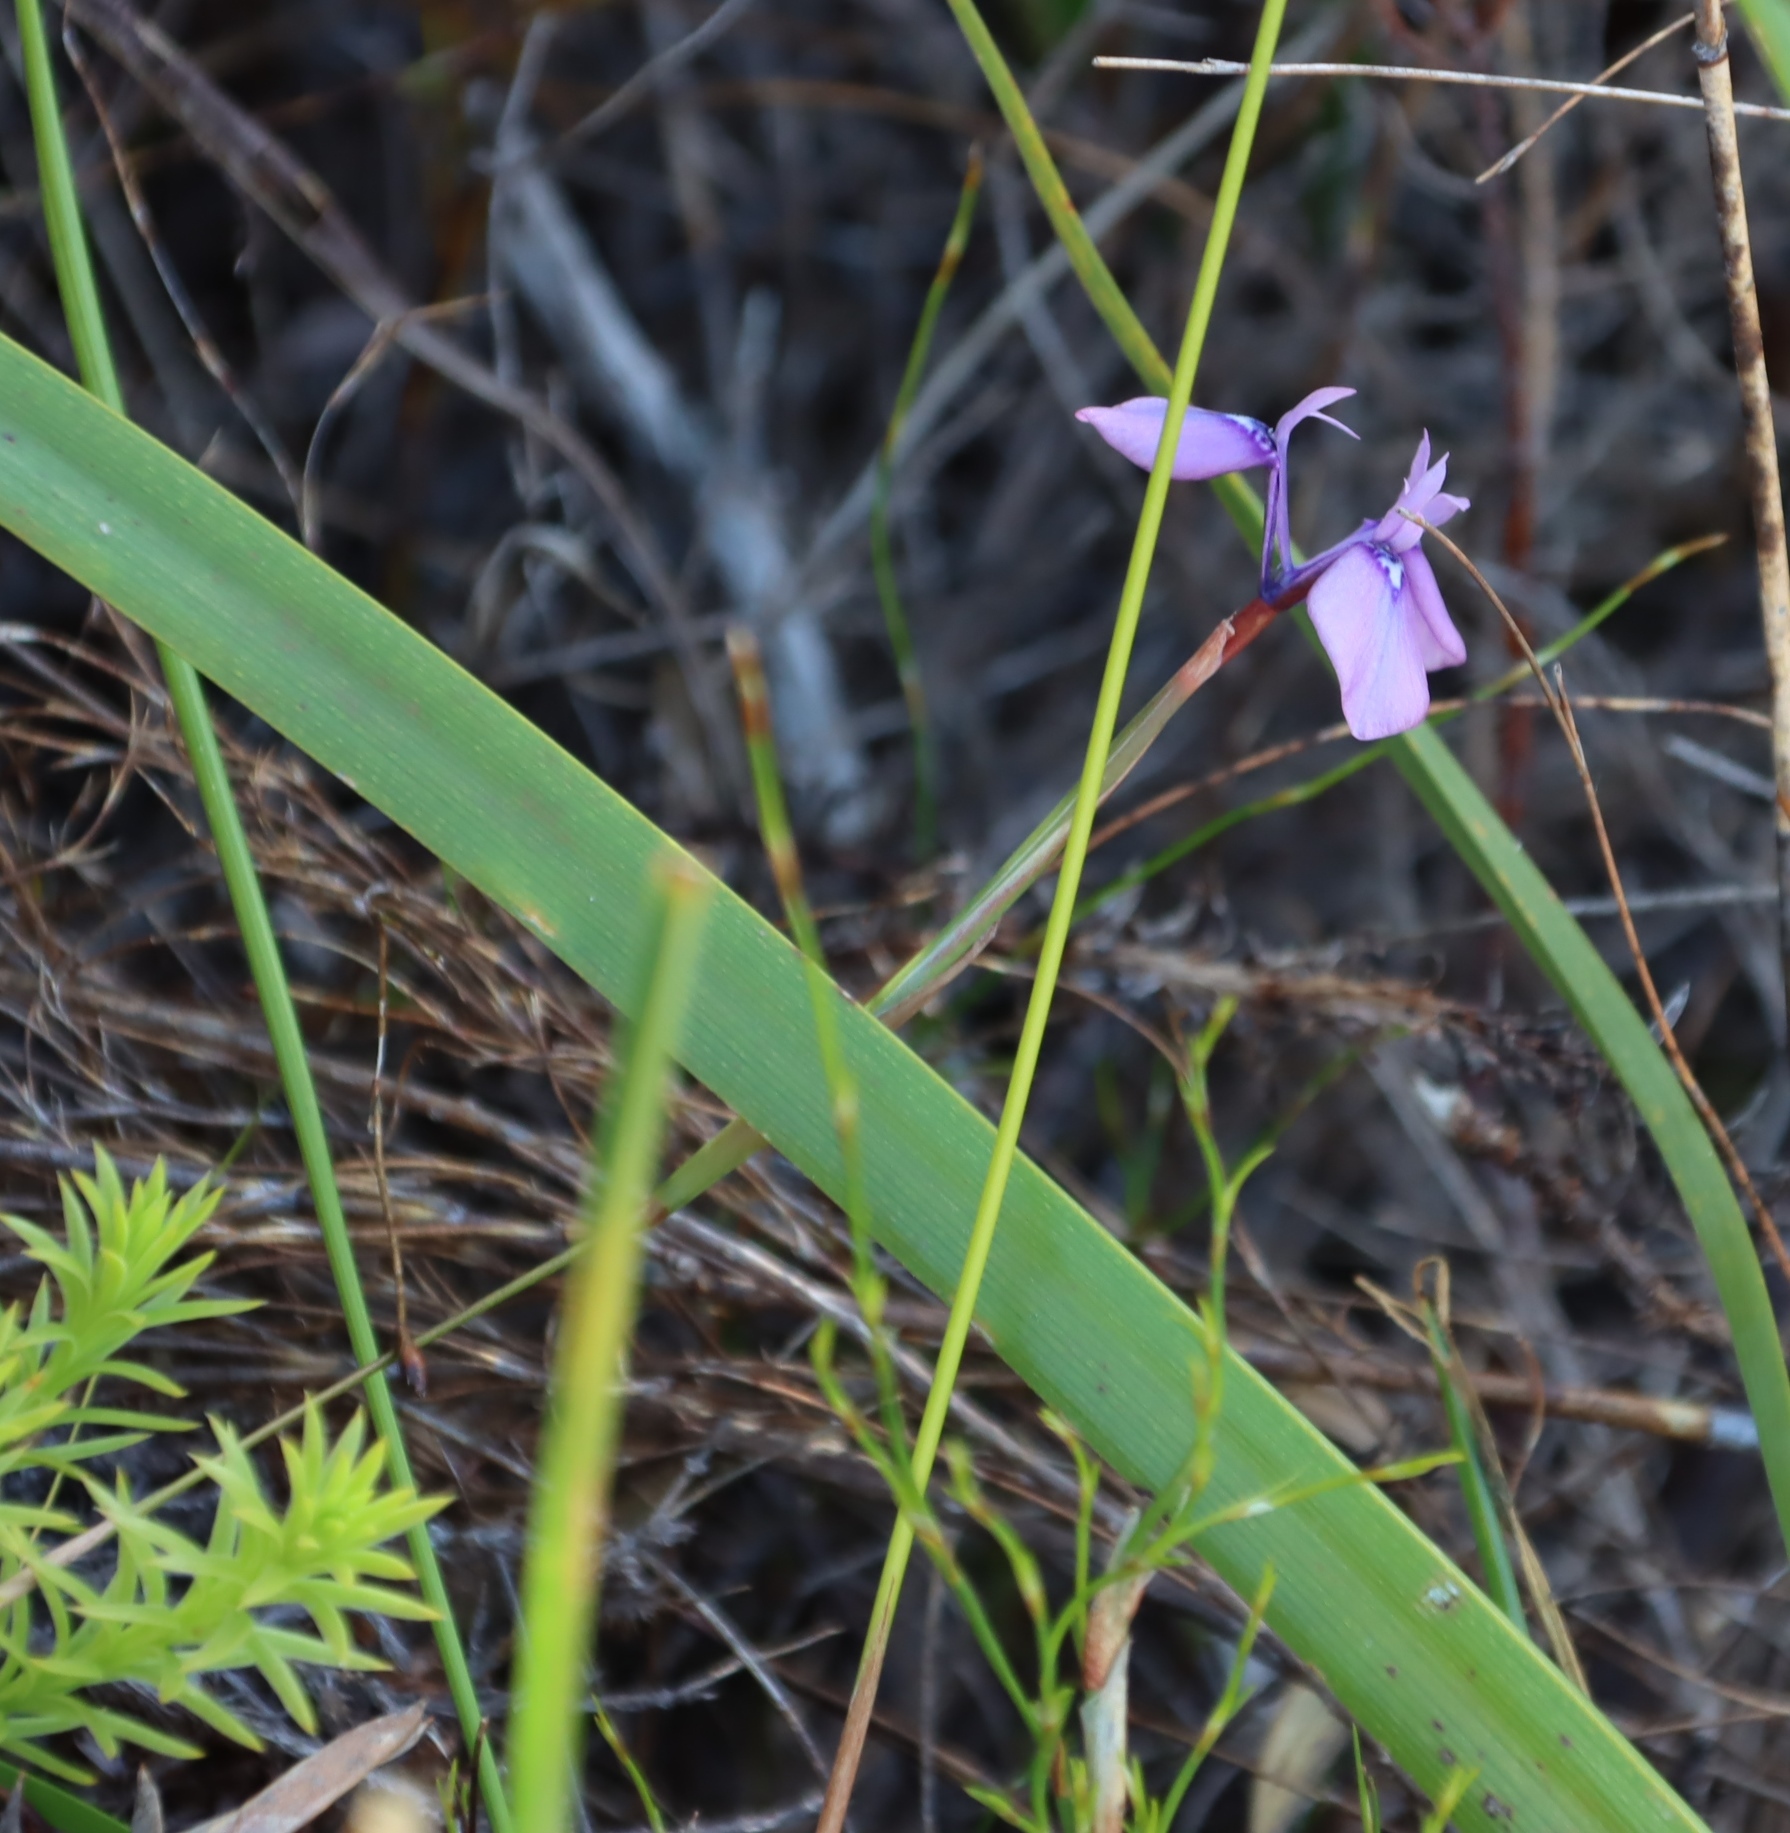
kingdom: Plantae
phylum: Tracheophyta
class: Liliopsida
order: Asparagales
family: Iridaceae
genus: Moraea
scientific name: Moraea tripetala
